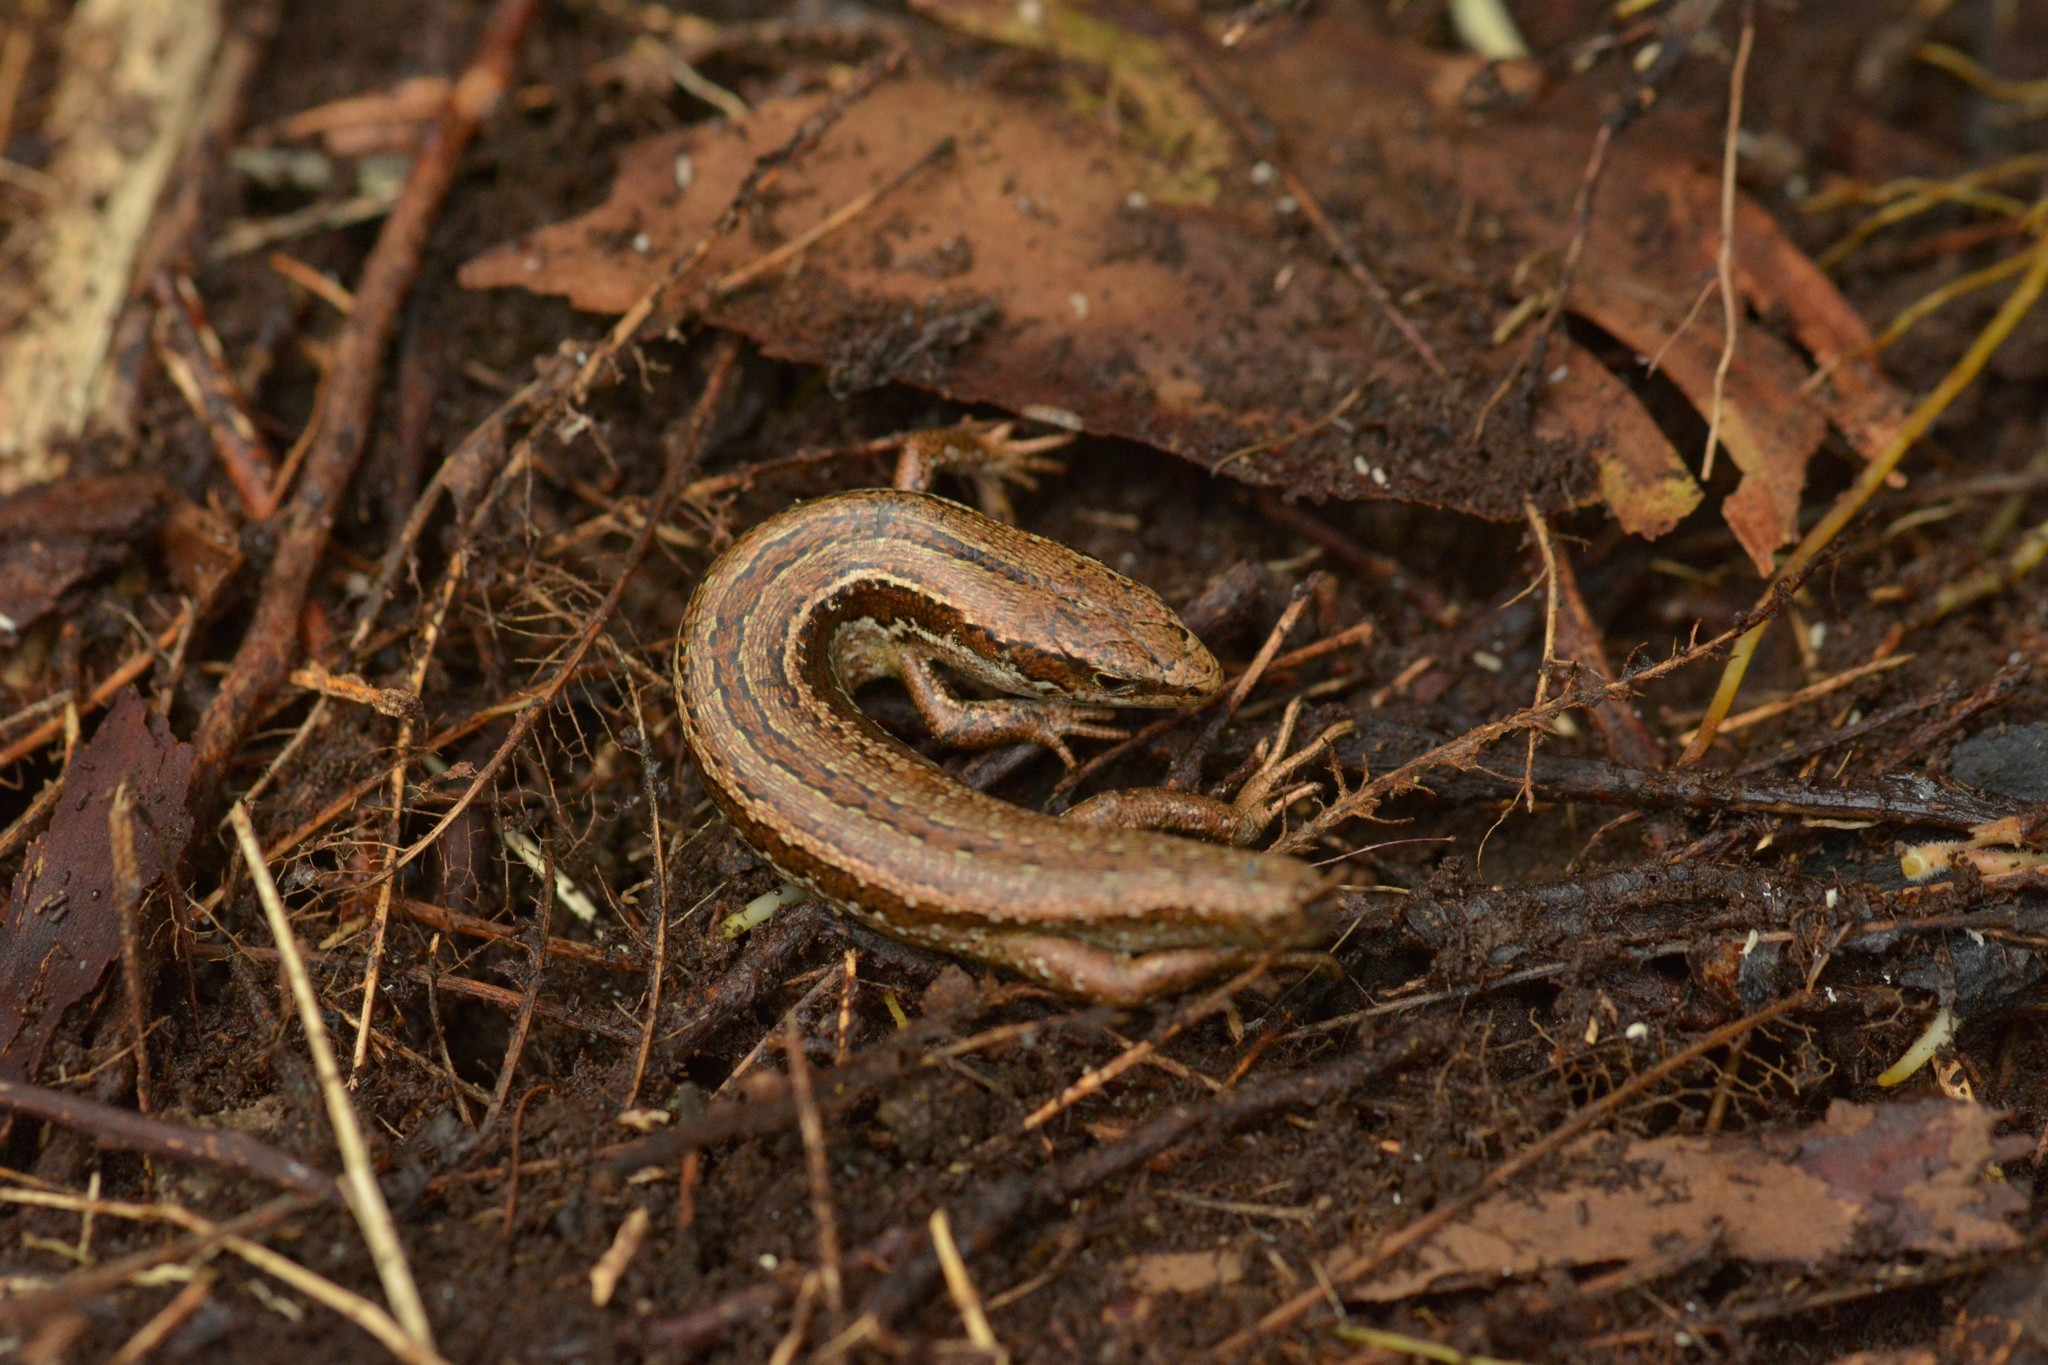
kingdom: Animalia
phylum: Chordata
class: Squamata
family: Scincidae
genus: Oligosoma
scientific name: Oligosoma polychroma
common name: Common new zealand skink
